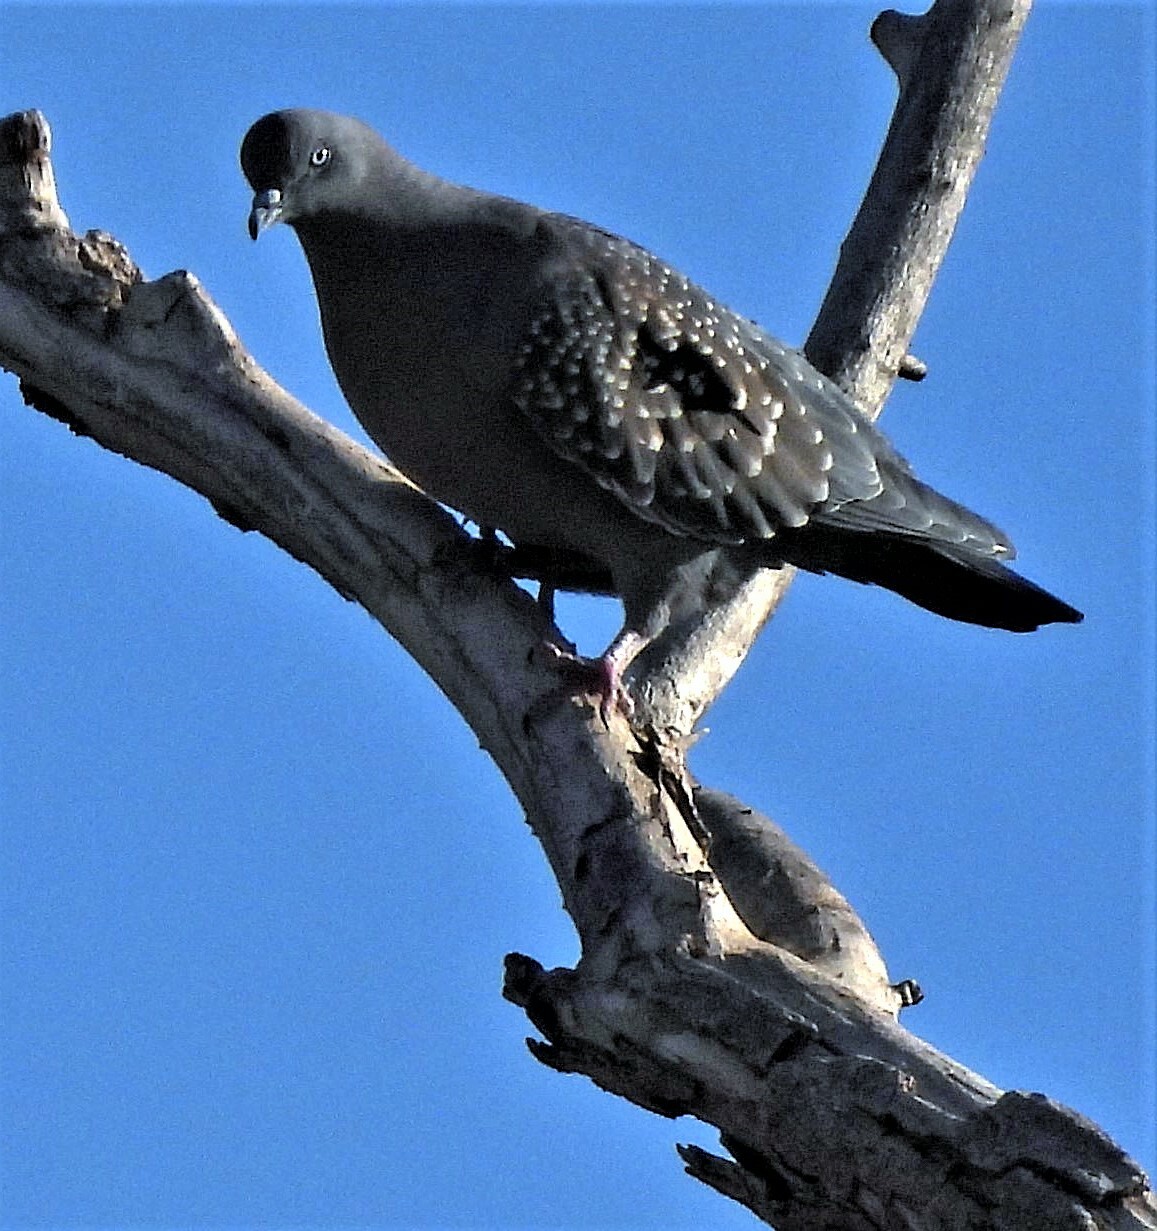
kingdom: Animalia
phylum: Chordata
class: Aves
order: Columbiformes
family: Columbidae
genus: Patagioenas
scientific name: Patagioenas maculosa
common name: Spot-winged pigeon
